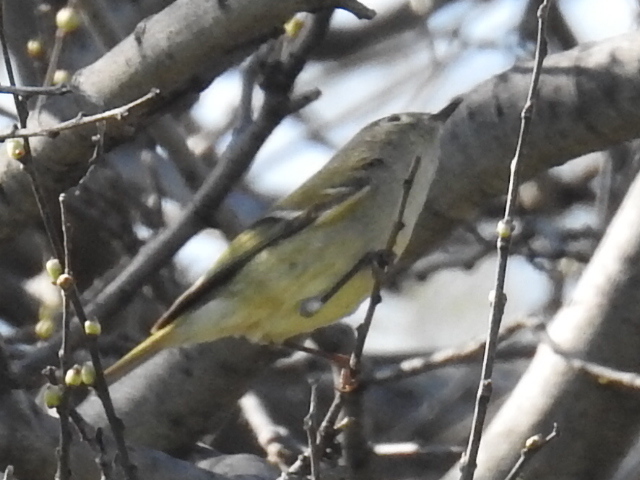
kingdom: Animalia
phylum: Chordata
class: Aves
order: Passeriformes
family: Regulidae
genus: Regulus
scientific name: Regulus calendula
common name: Ruby-crowned kinglet
